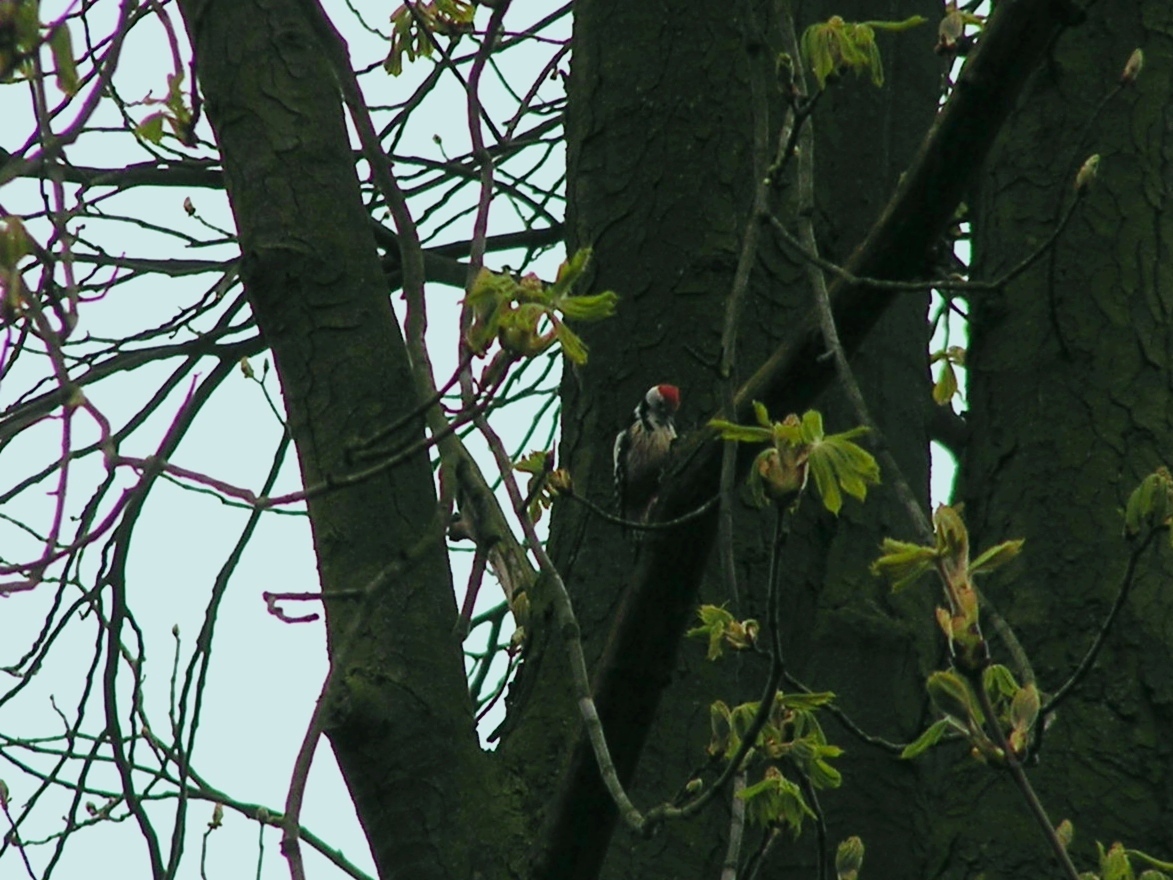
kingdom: Animalia
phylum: Chordata
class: Aves
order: Piciformes
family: Picidae
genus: Dendrocoptes
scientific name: Dendrocoptes medius
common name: Middle spotted woodpecker
